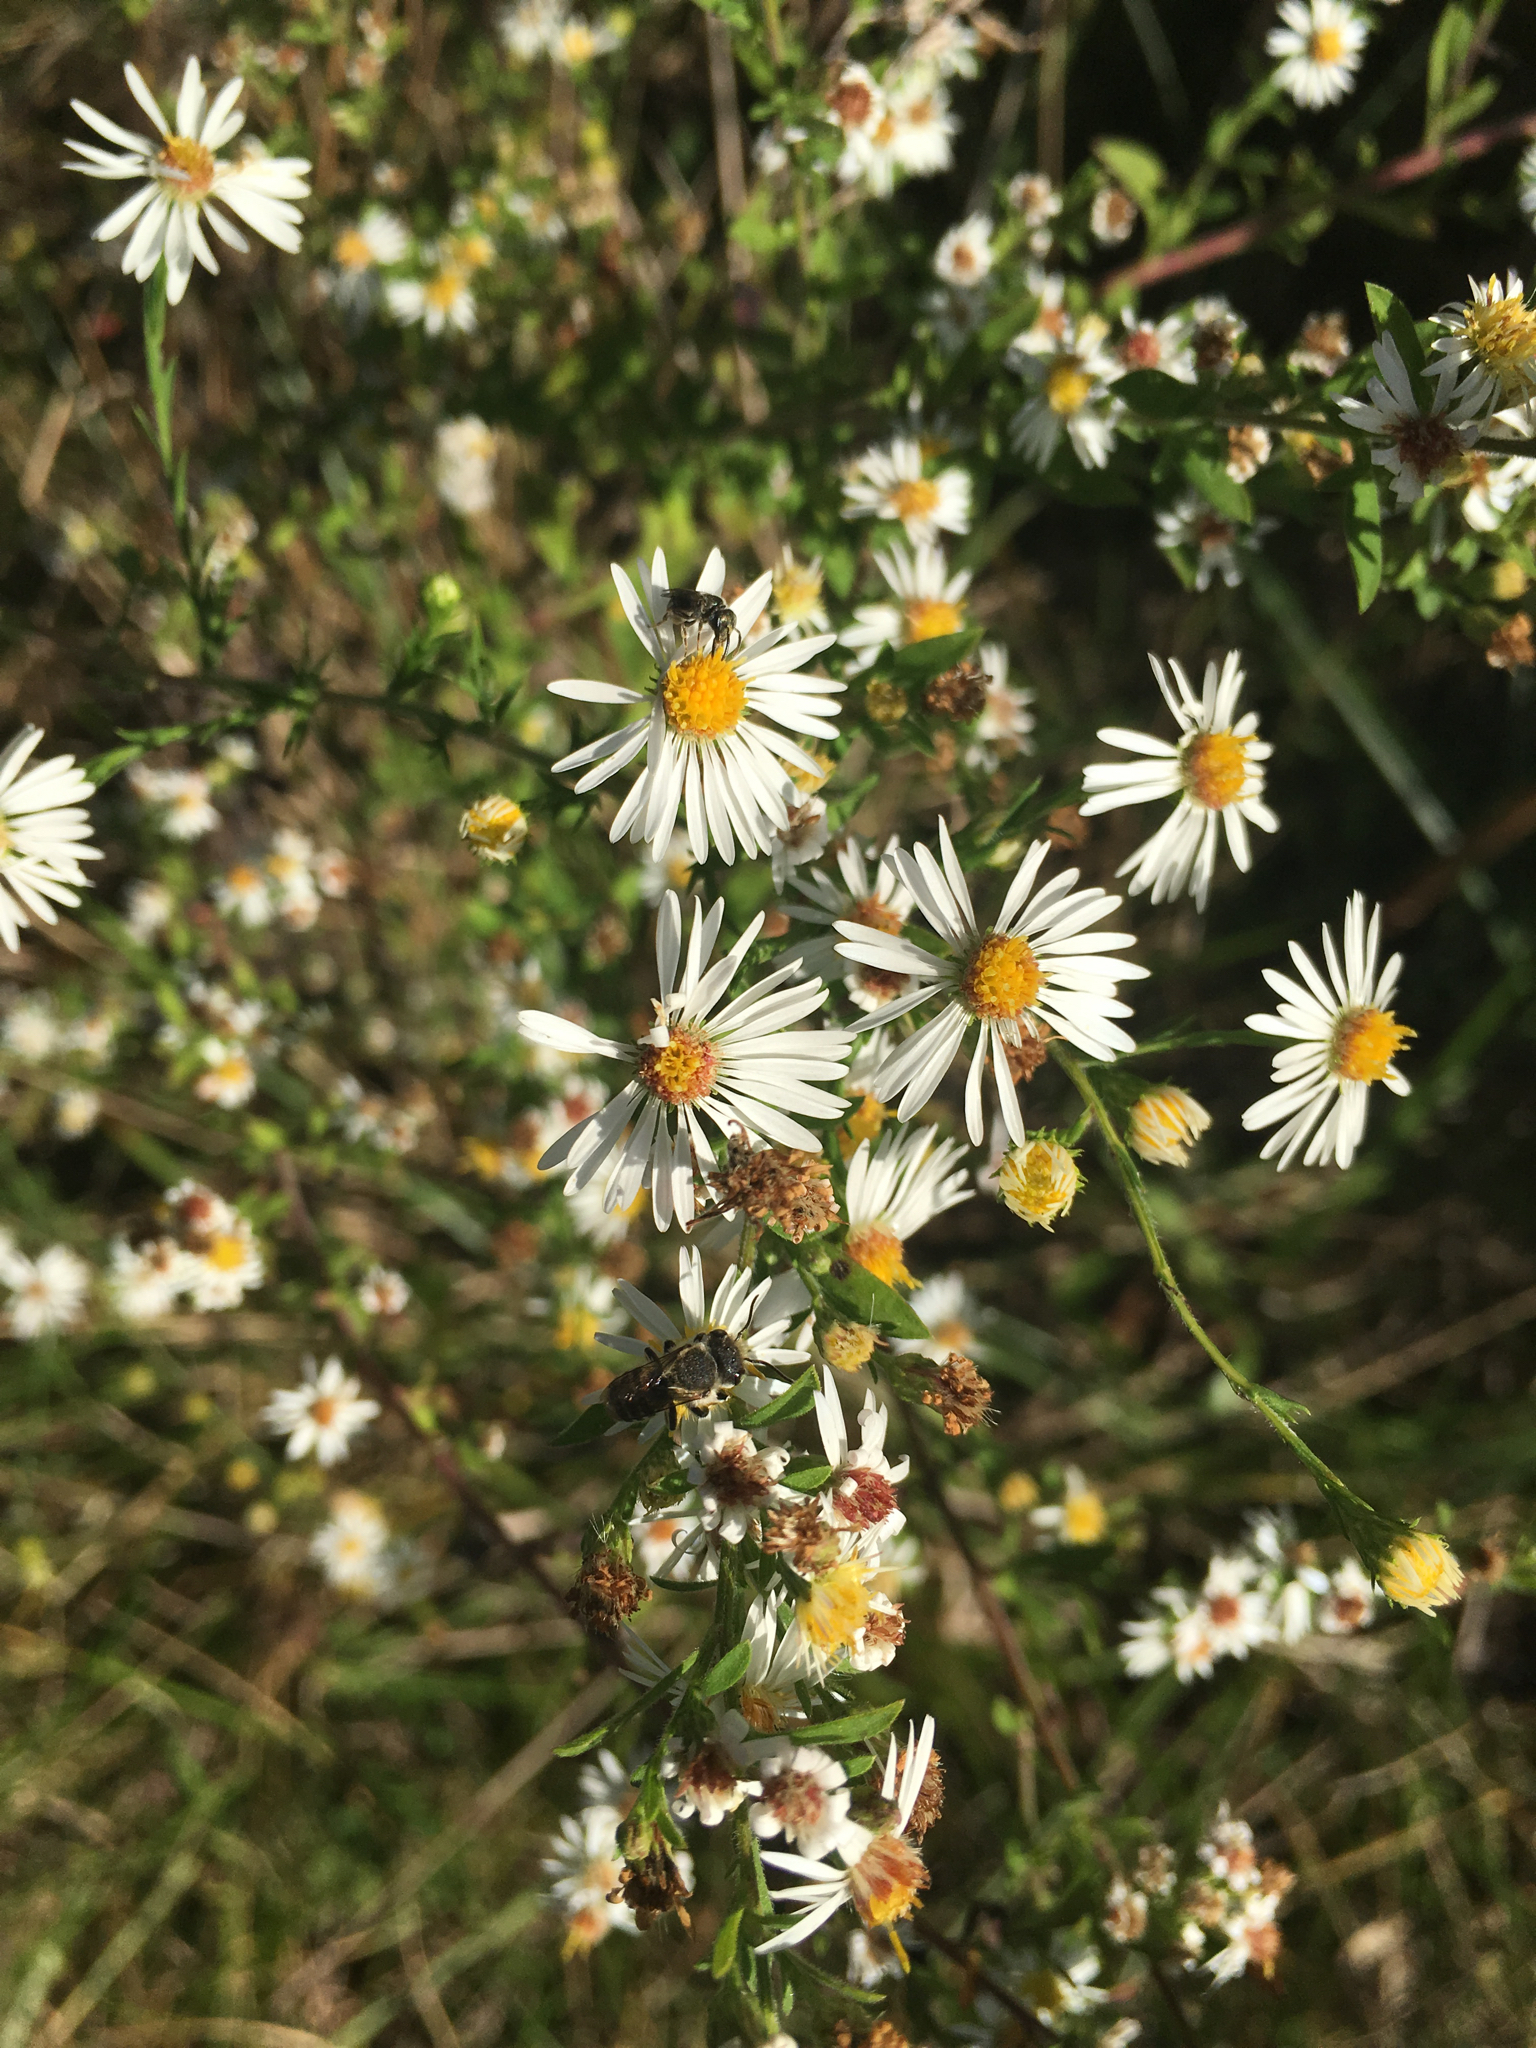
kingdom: Plantae
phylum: Tracheophyta
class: Magnoliopsida
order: Asterales
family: Asteraceae
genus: Symphyotrichum
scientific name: Symphyotrichum pilosum
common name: Awl aster
